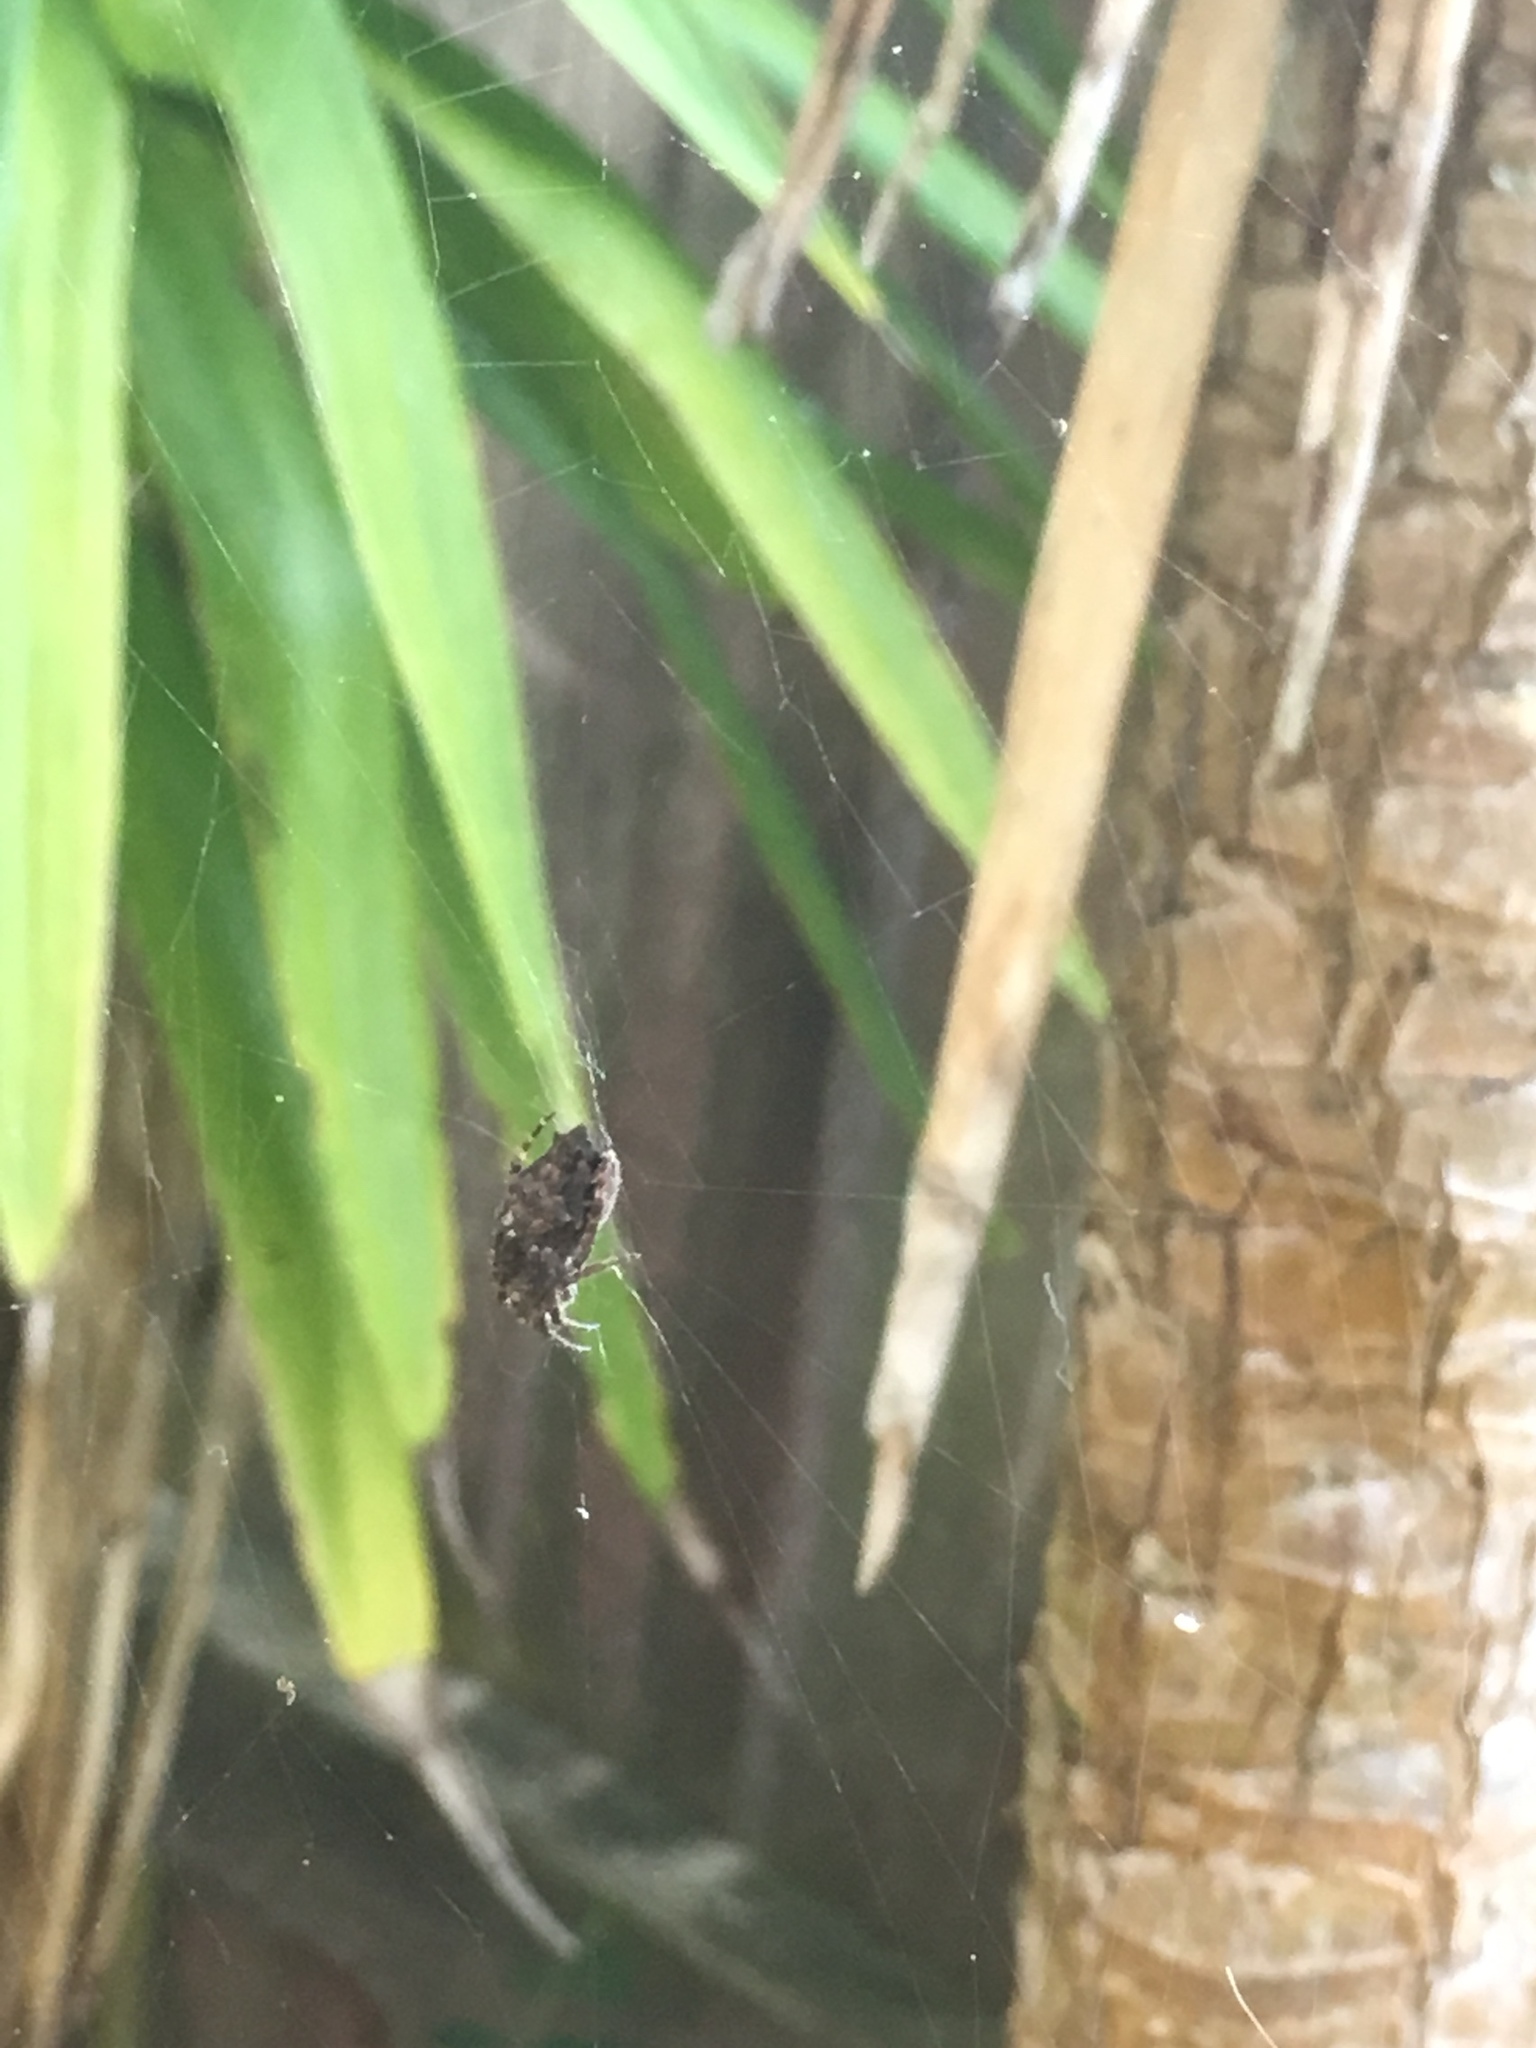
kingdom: Animalia
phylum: Arthropoda
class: Arachnida
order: Araneae
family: Araneidae
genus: Eriophora
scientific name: Eriophora pustulosa
